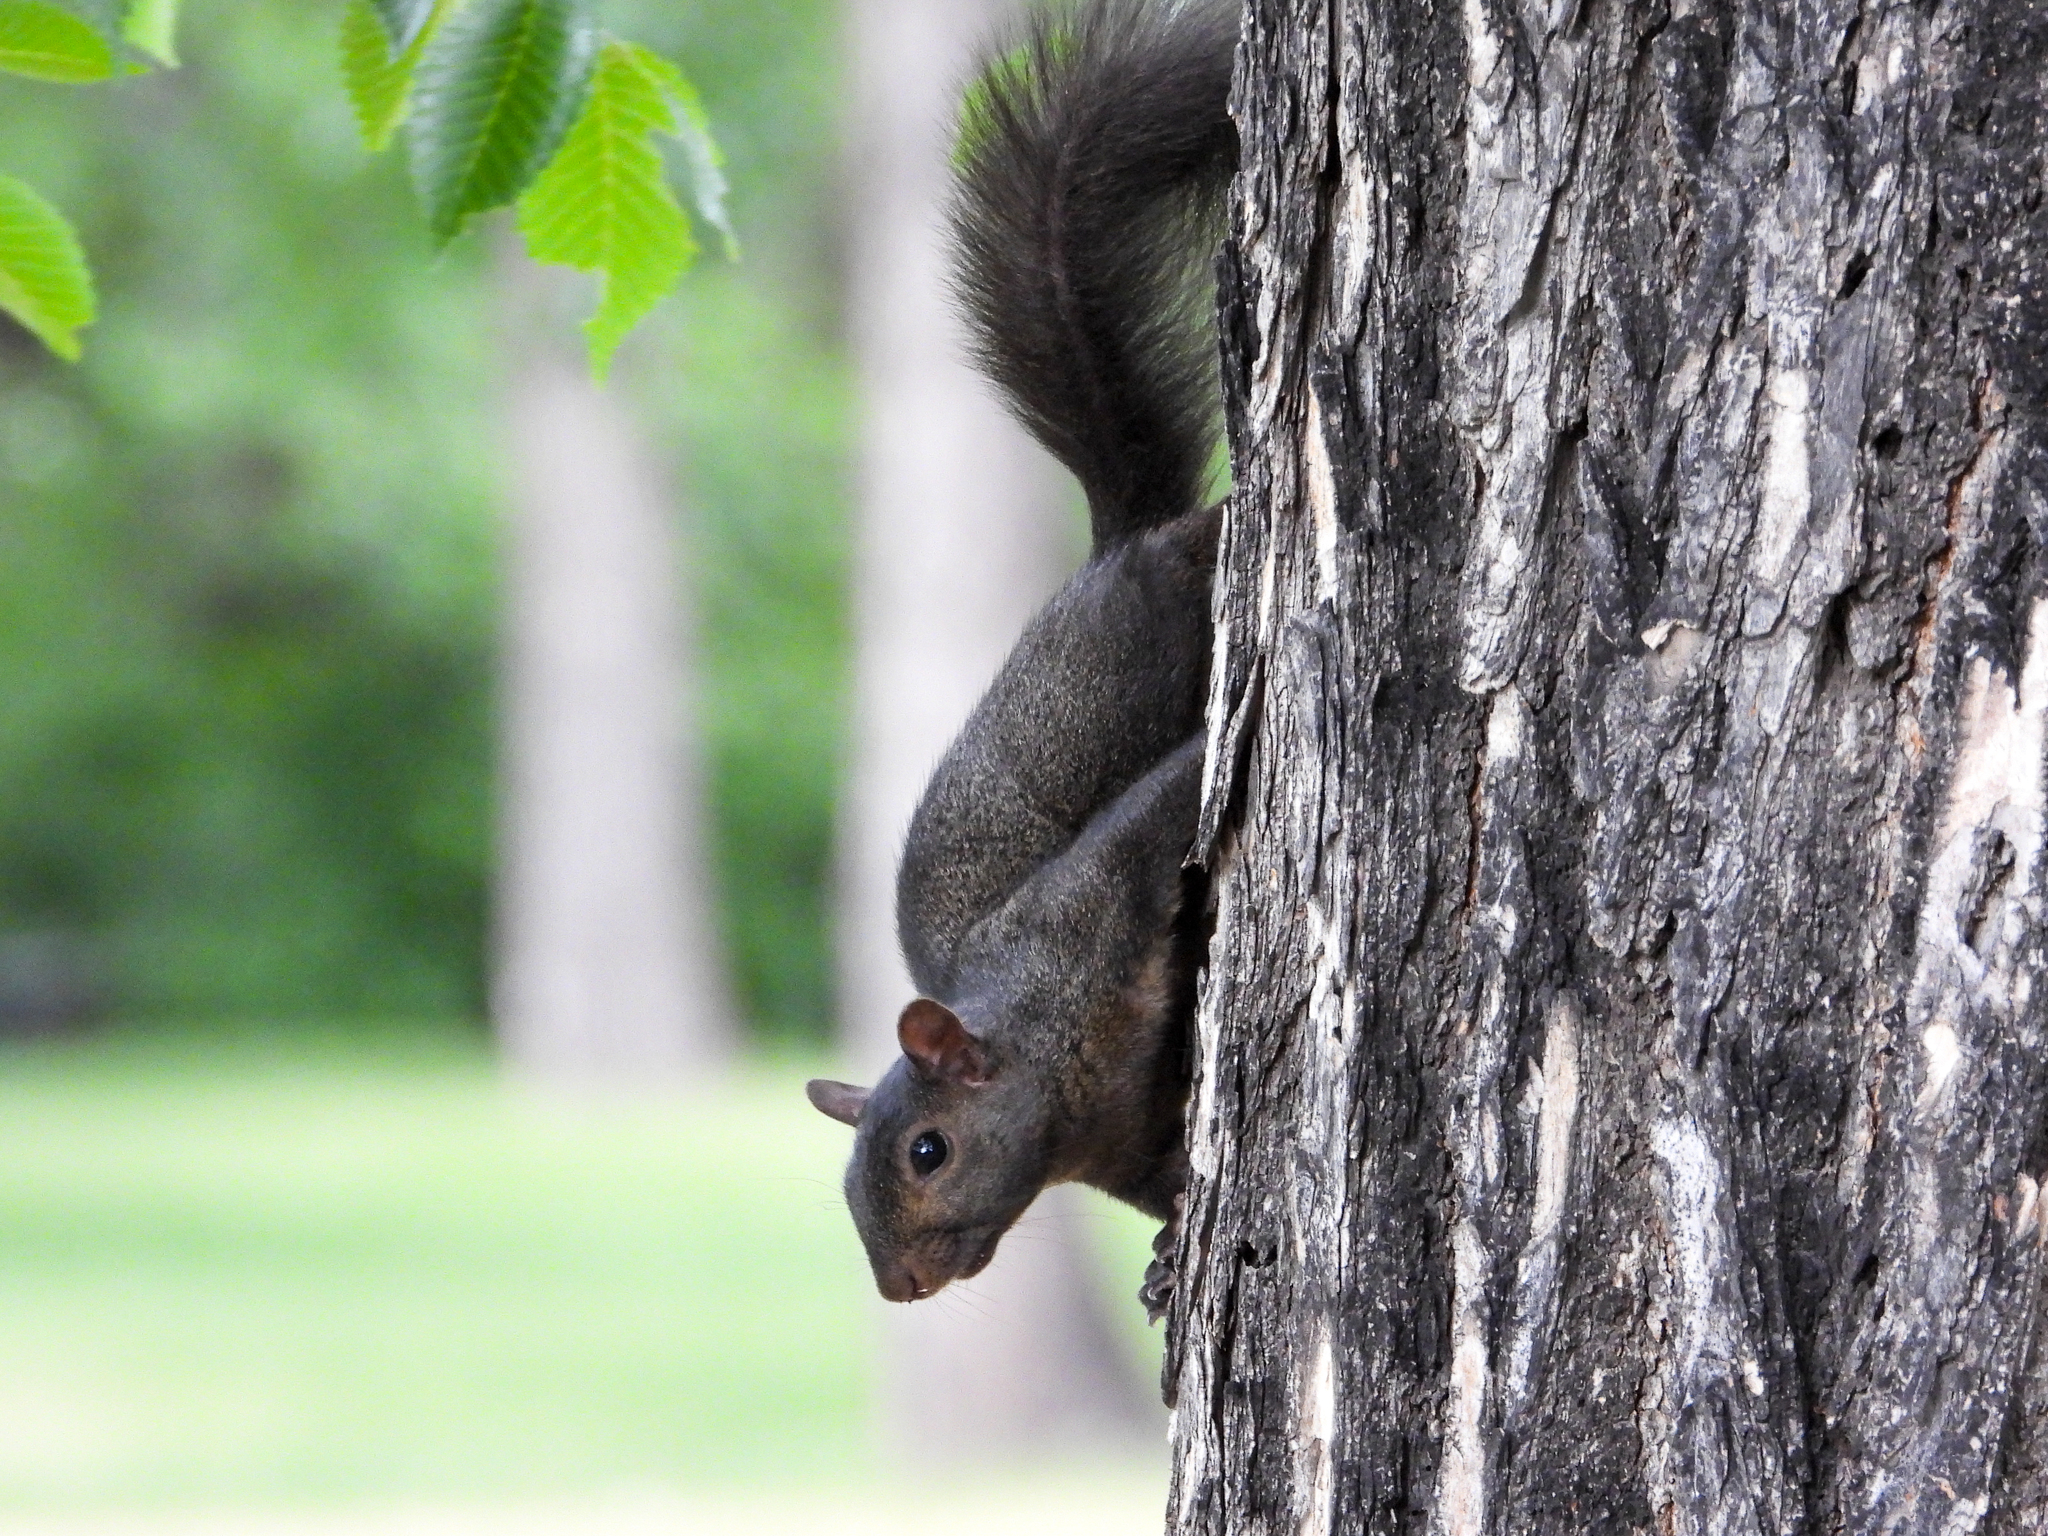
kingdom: Animalia
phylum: Chordata
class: Mammalia
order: Rodentia
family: Sciuridae
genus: Sciurus
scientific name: Sciurus carolinensis
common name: Eastern gray squirrel
